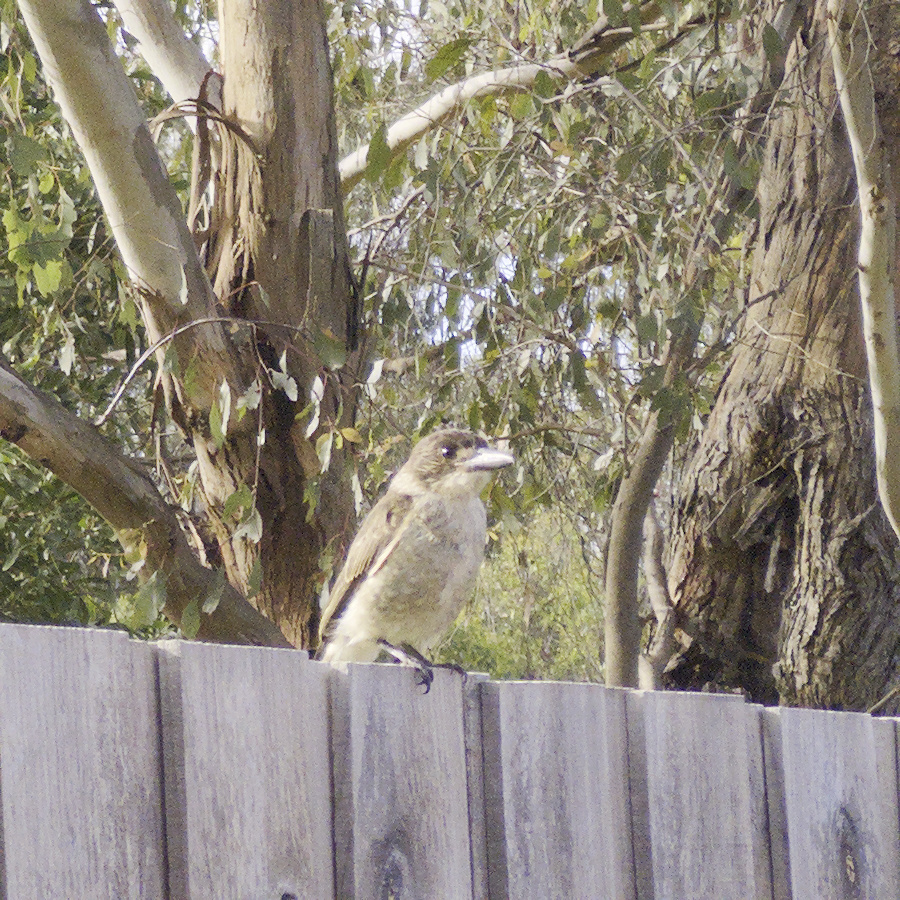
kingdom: Animalia
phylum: Chordata
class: Aves
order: Passeriformes
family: Cracticidae
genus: Cracticus
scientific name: Cracticus torquatus
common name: Grey butcherbird
